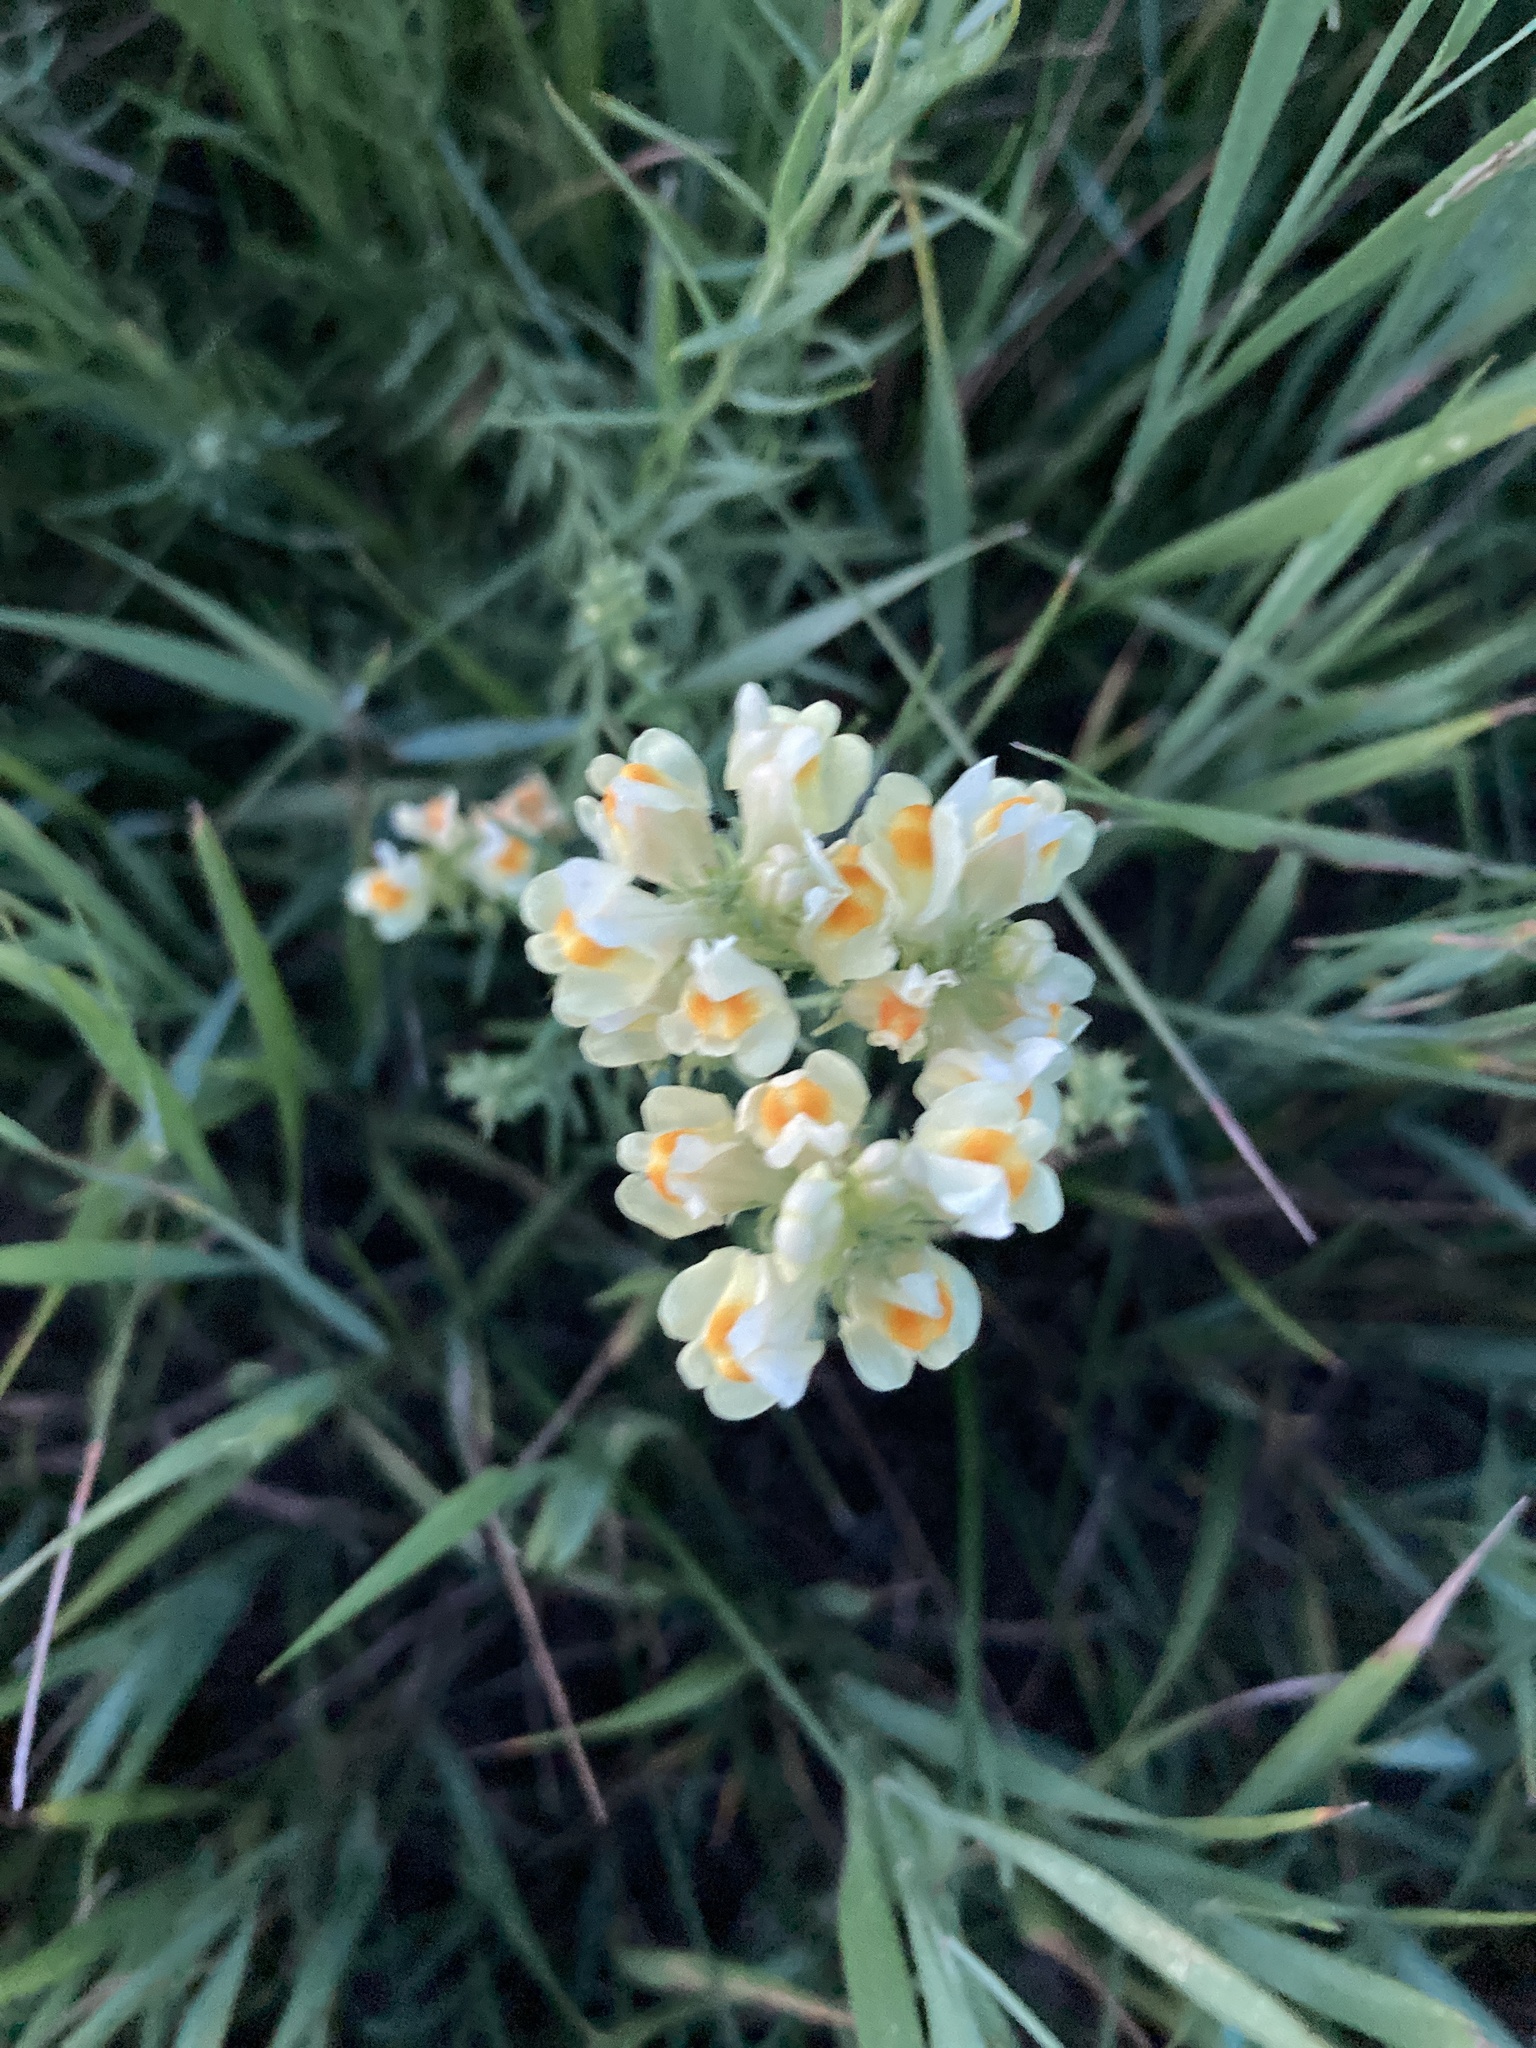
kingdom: Plantae
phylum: Tracheophyta
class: Magnoliopsida
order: Lamiales
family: Plantaginaceae
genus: Linaria
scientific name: Linaria vulgaris
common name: Butter and eggs
